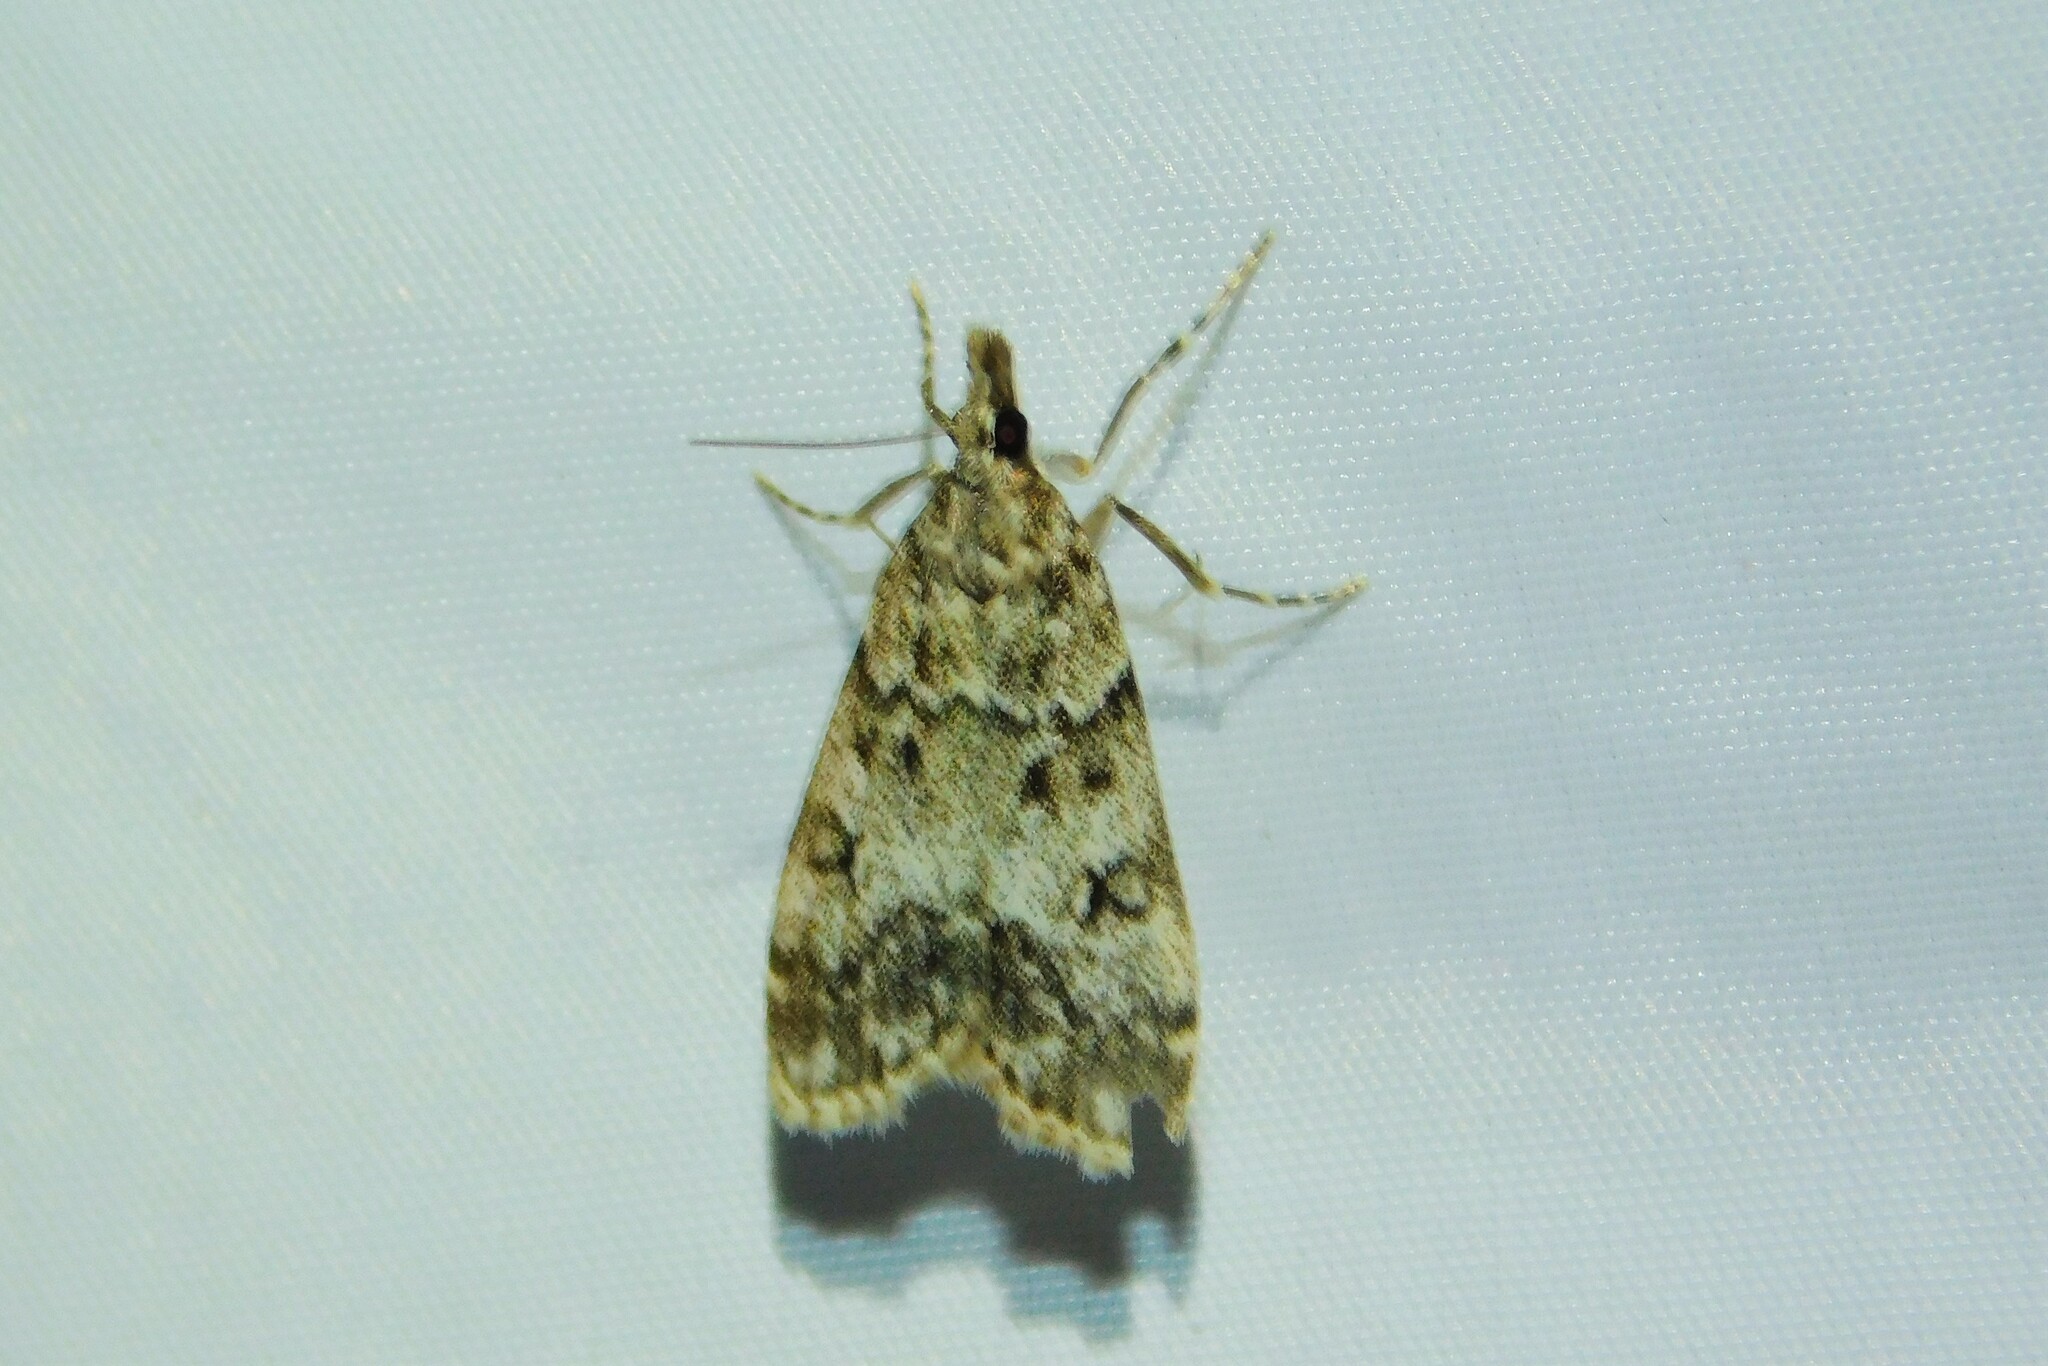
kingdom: Animalia
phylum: Arthropoda
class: Insecta
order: Lepidoptera
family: Crambidae
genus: Eudonia
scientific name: Eudonia lacustrata
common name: Little grey
